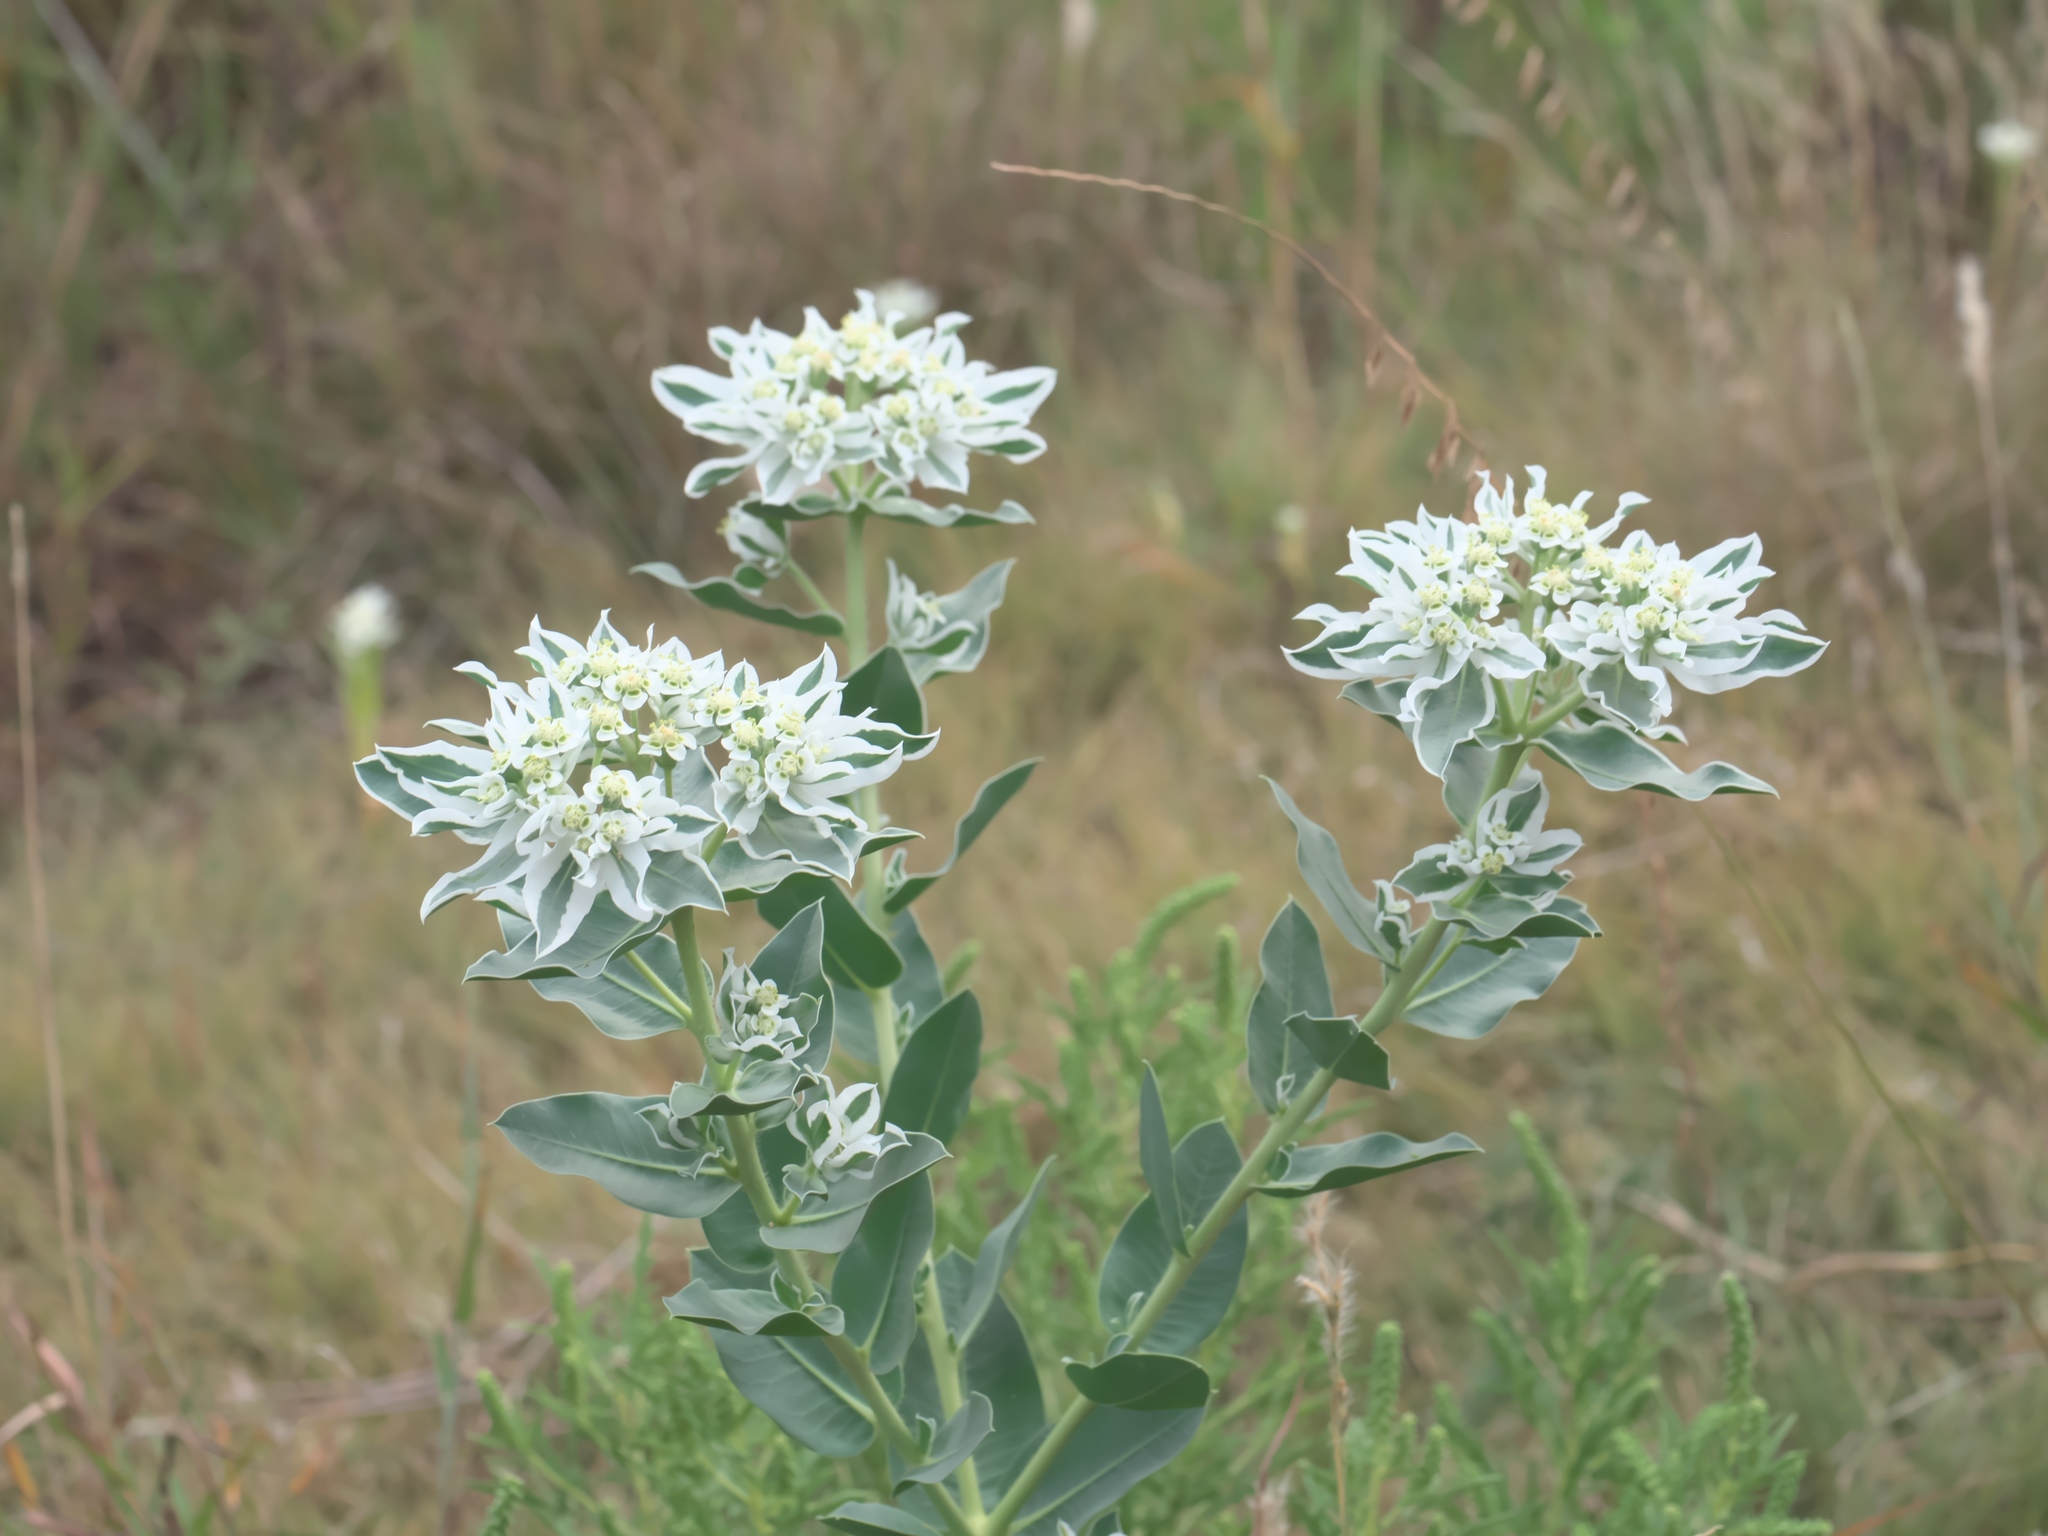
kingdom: Plantae
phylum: Tracheophyta
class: Magnoliopsida
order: Malpighiales
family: Euphorbiaceae
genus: Euphorbia
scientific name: Euphorbia marginata
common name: Ghostweed
